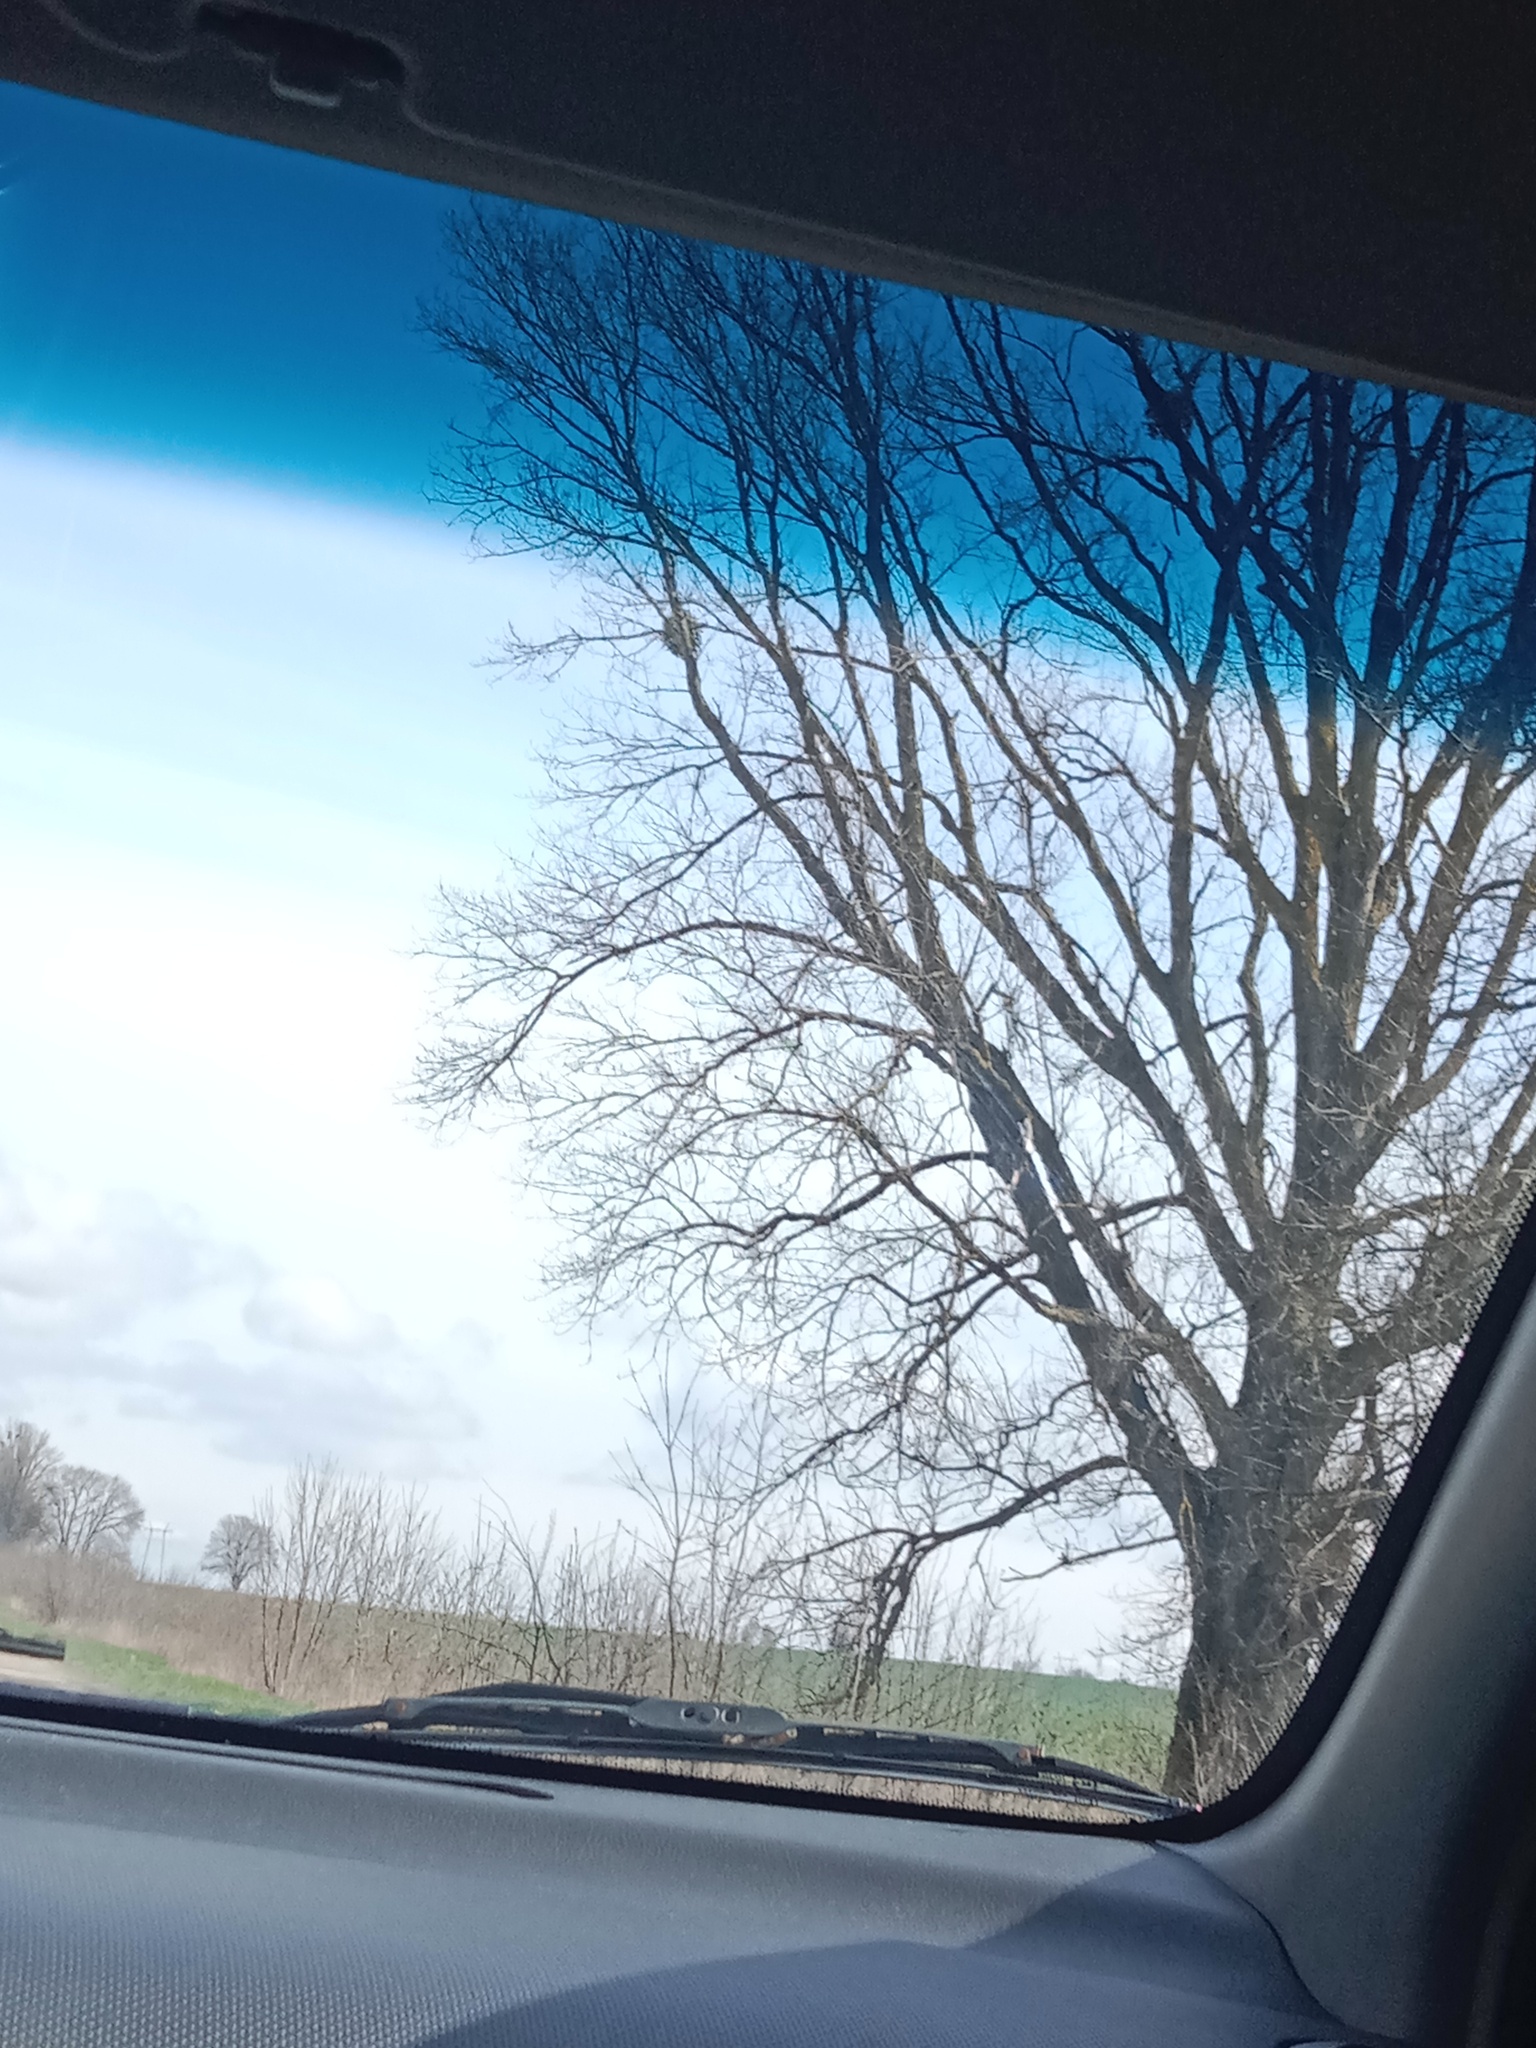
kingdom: Plantae
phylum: Tracheophyta
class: Magnoliopsida
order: Santalales
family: Viscaceae
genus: Viscum
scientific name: Viscum album
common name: Mistletoe
